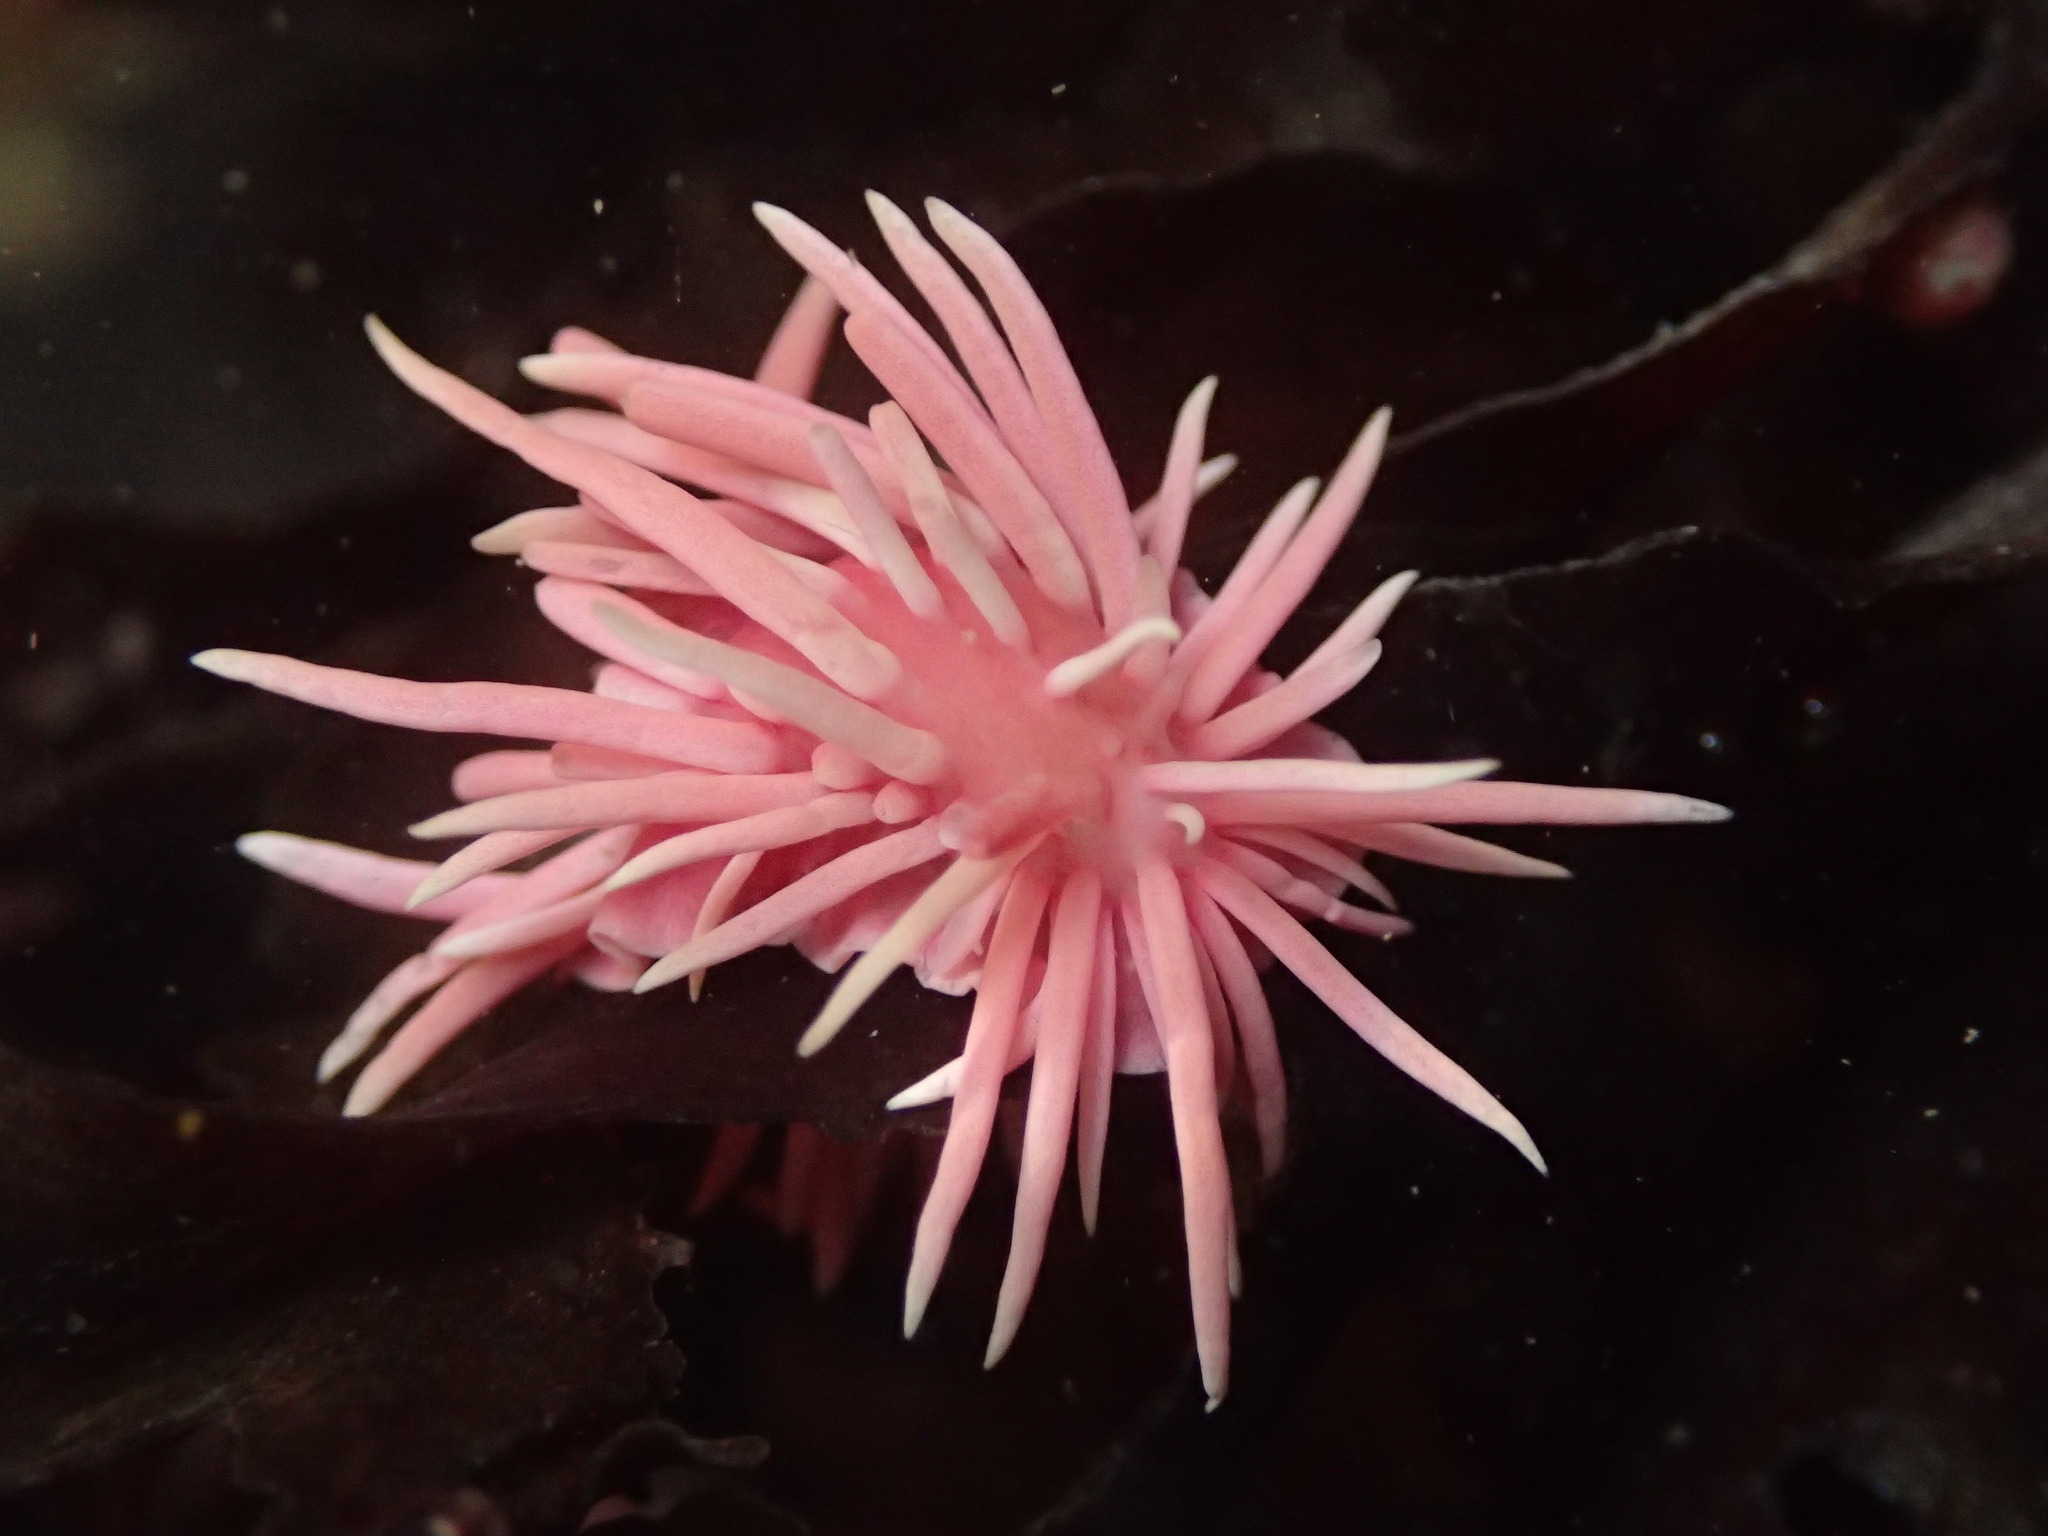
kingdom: Animalia
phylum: Mollusca
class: Gastropoda
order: Nudibranchia
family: Goniodorididae
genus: Okenia
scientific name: Okenia
